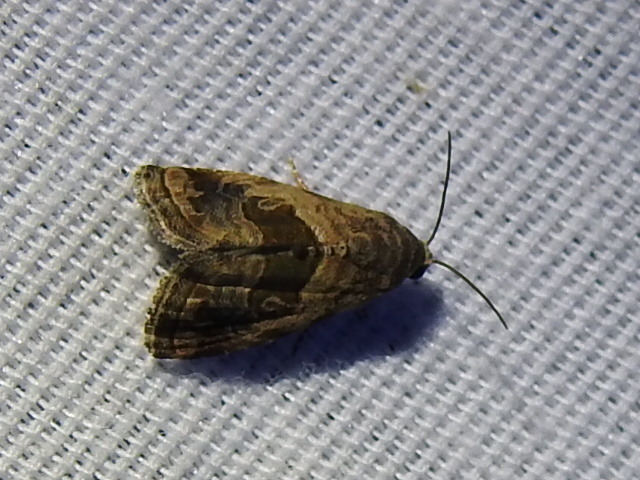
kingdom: Animalia
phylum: Arthropoda
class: Insecta
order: Lepidoptera
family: Noctuidae
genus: Tripudia
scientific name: Tripudia quadrifera
